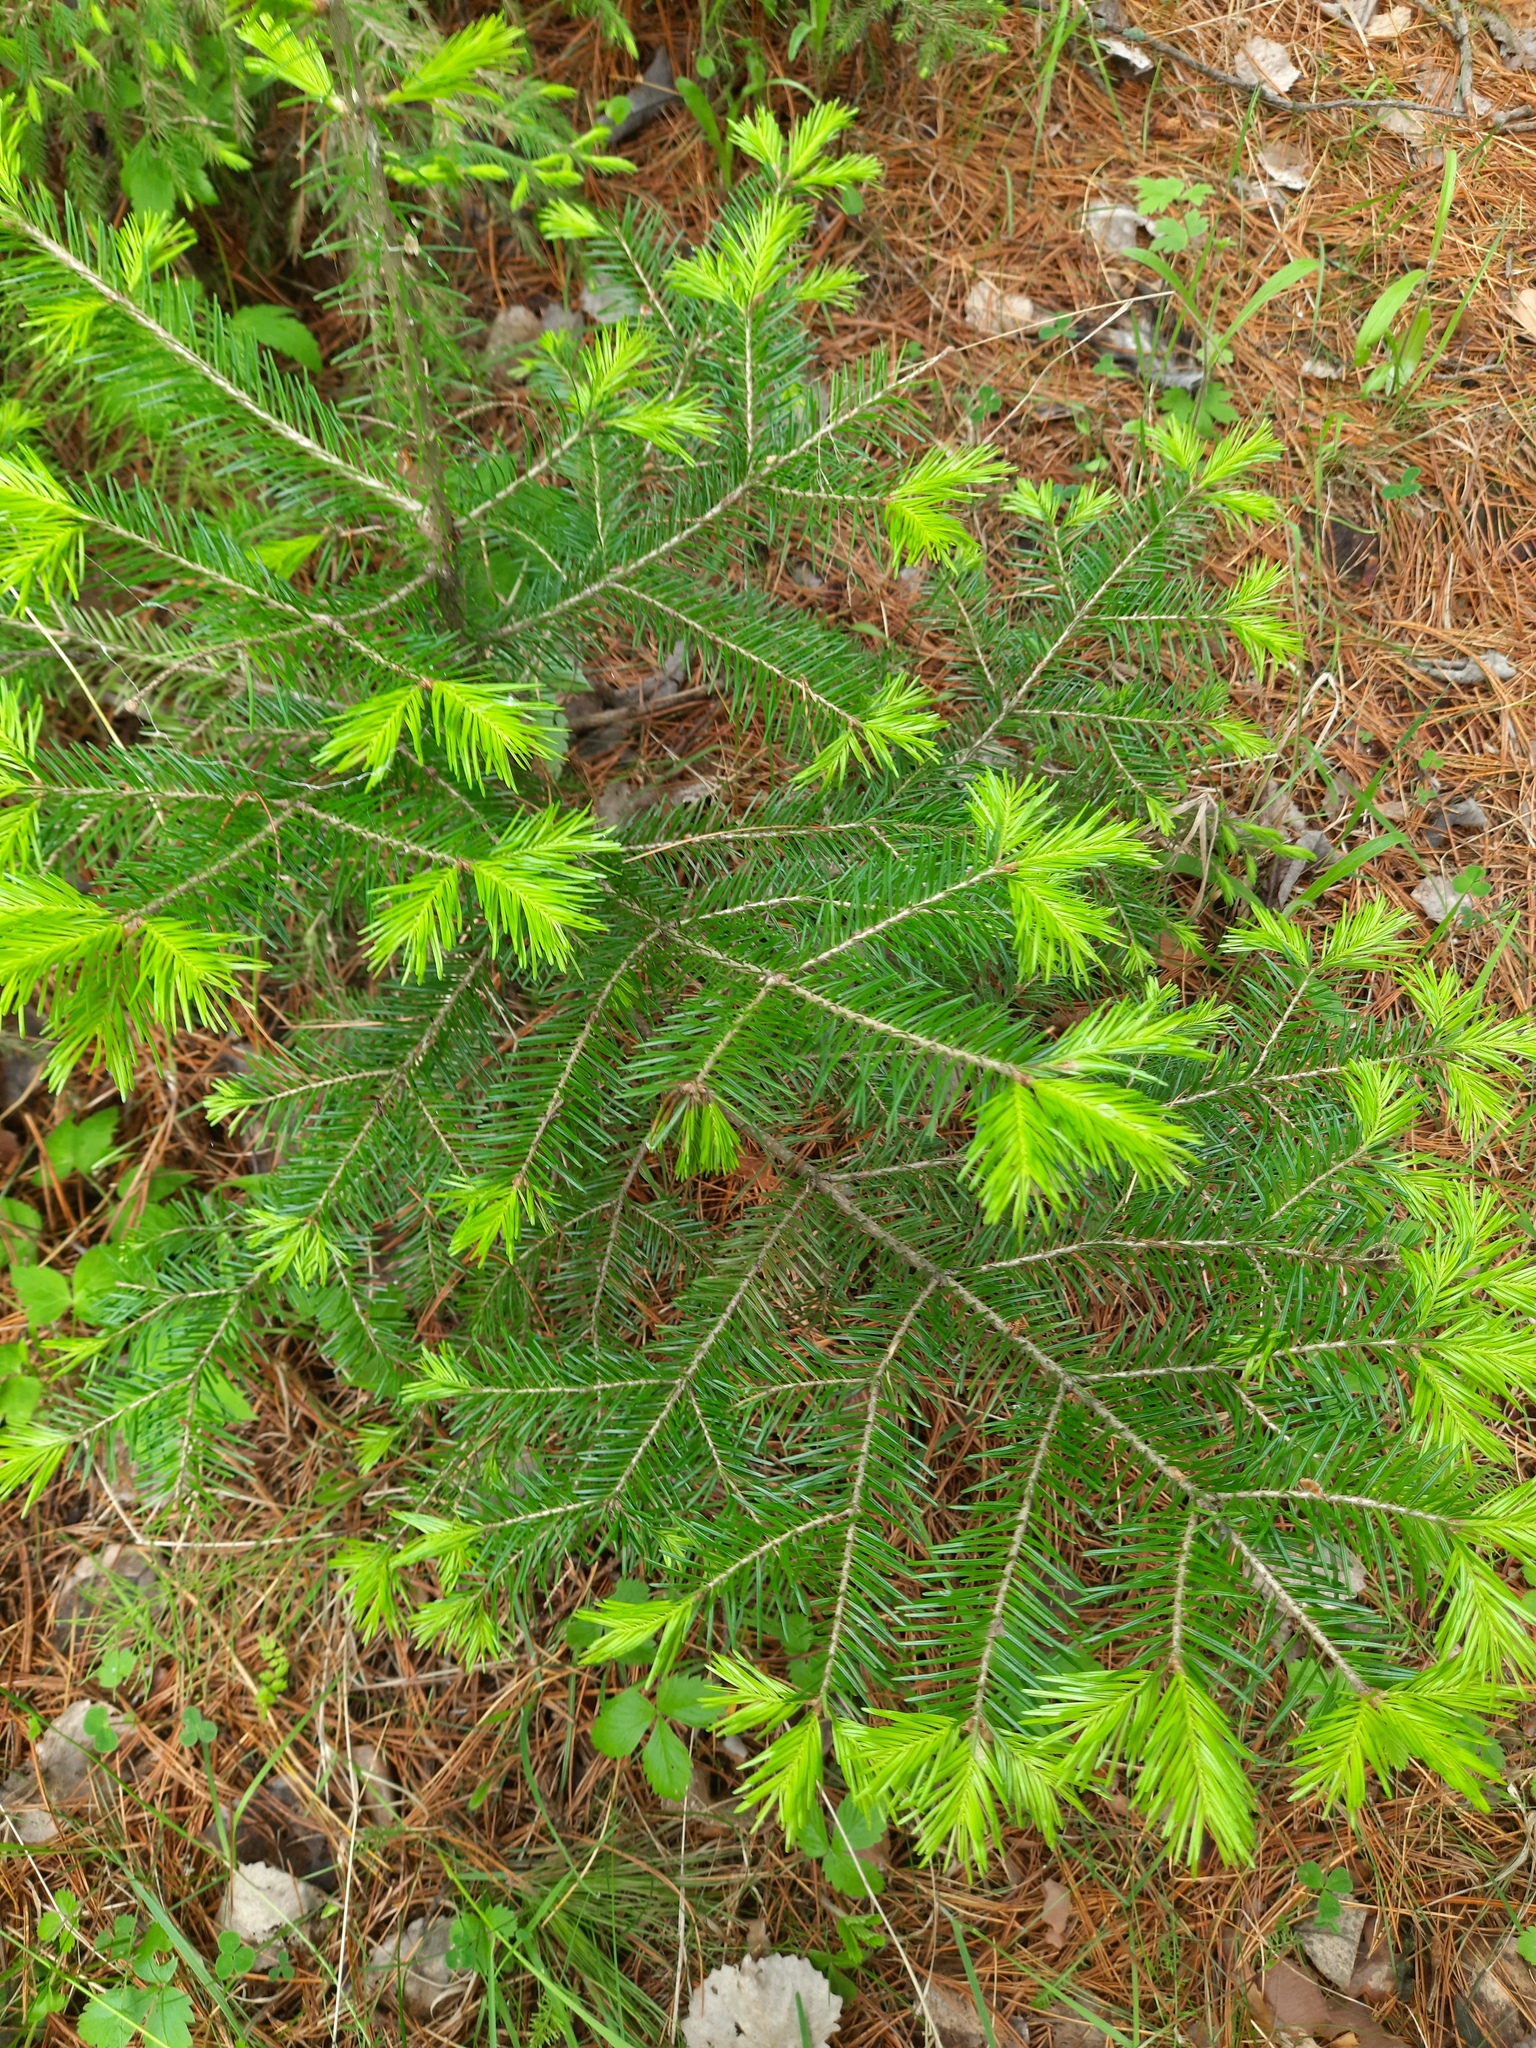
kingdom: Plantae
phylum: Tracheophyta
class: Pinopsida
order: Pinales
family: Pinaceae
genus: Abies
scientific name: Abies sibirica
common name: Siberian fir
